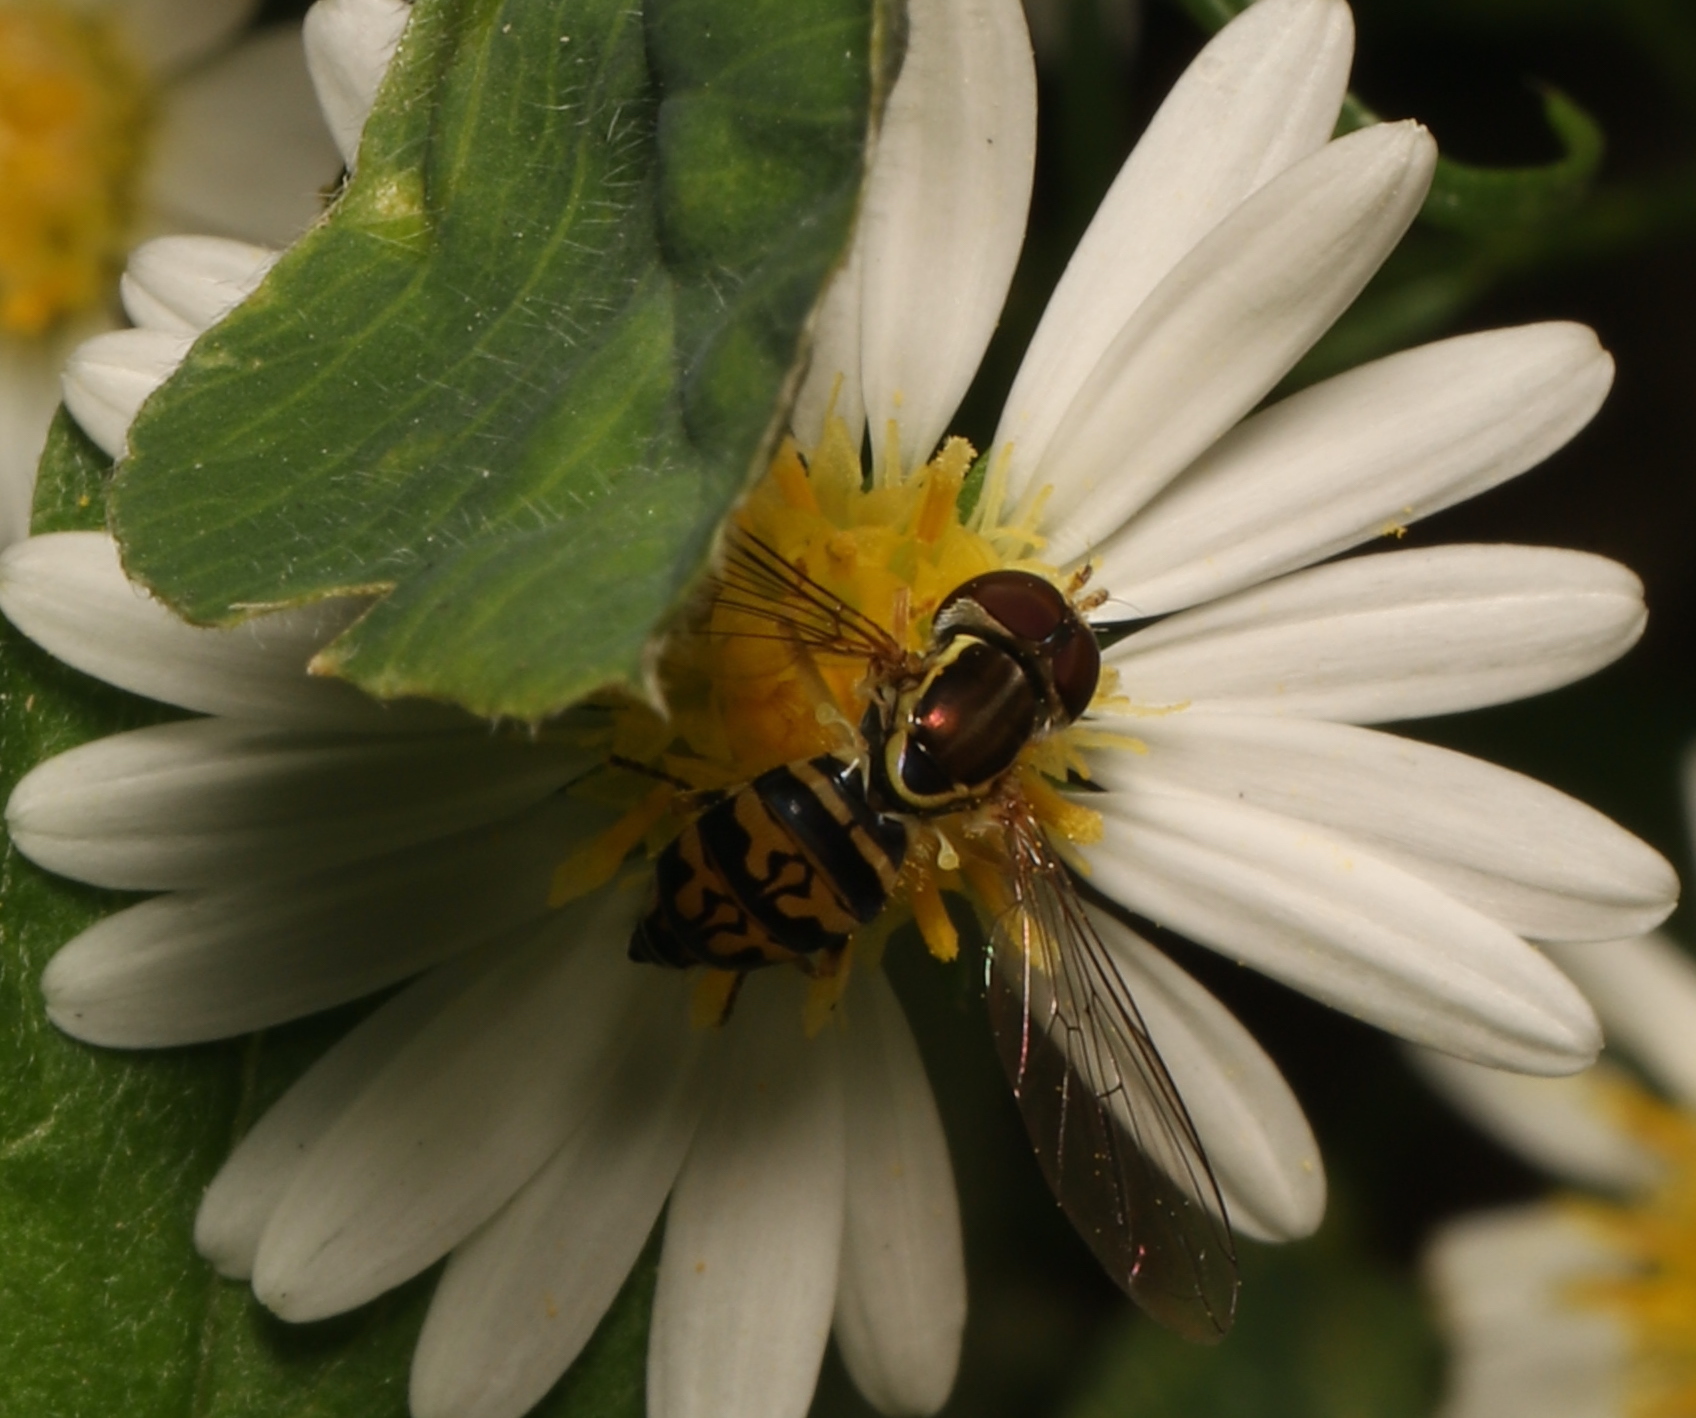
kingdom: Animalia
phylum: Arthropoda
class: Insecta
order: Diptera
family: Syrphidae
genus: Toxomerus
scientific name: Toxomerus geminatus
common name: Eastern calligrapher
